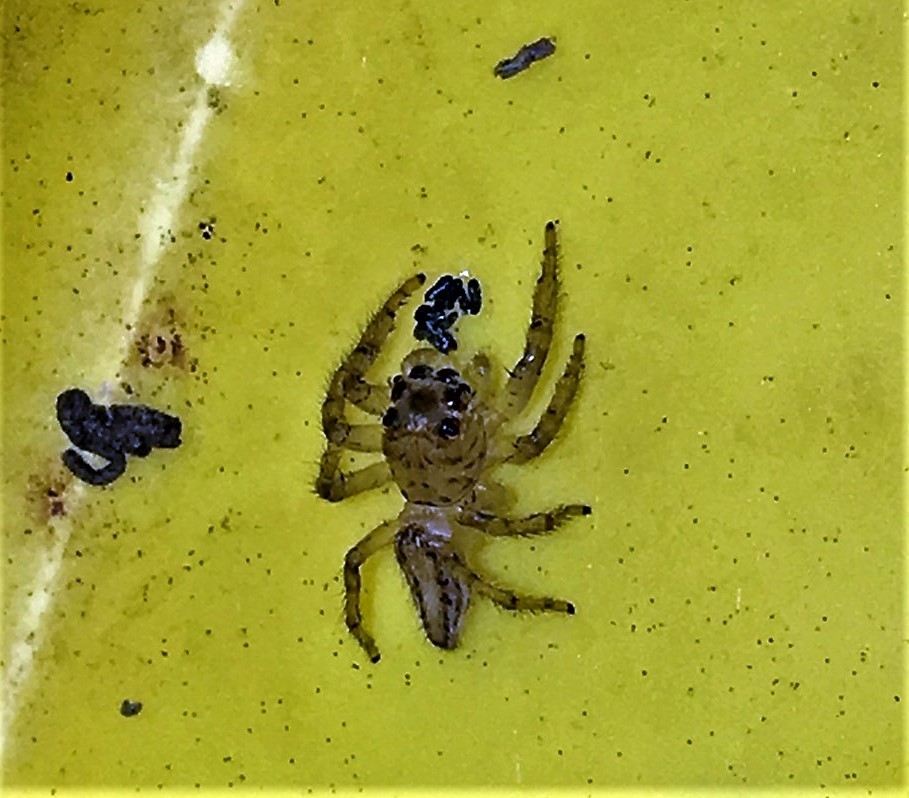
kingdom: Animalia
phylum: Arthropoda
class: Arachnida
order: Araneae
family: Salticidae
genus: Colonus
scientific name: Colonus sylvanus
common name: Jumping spiders
